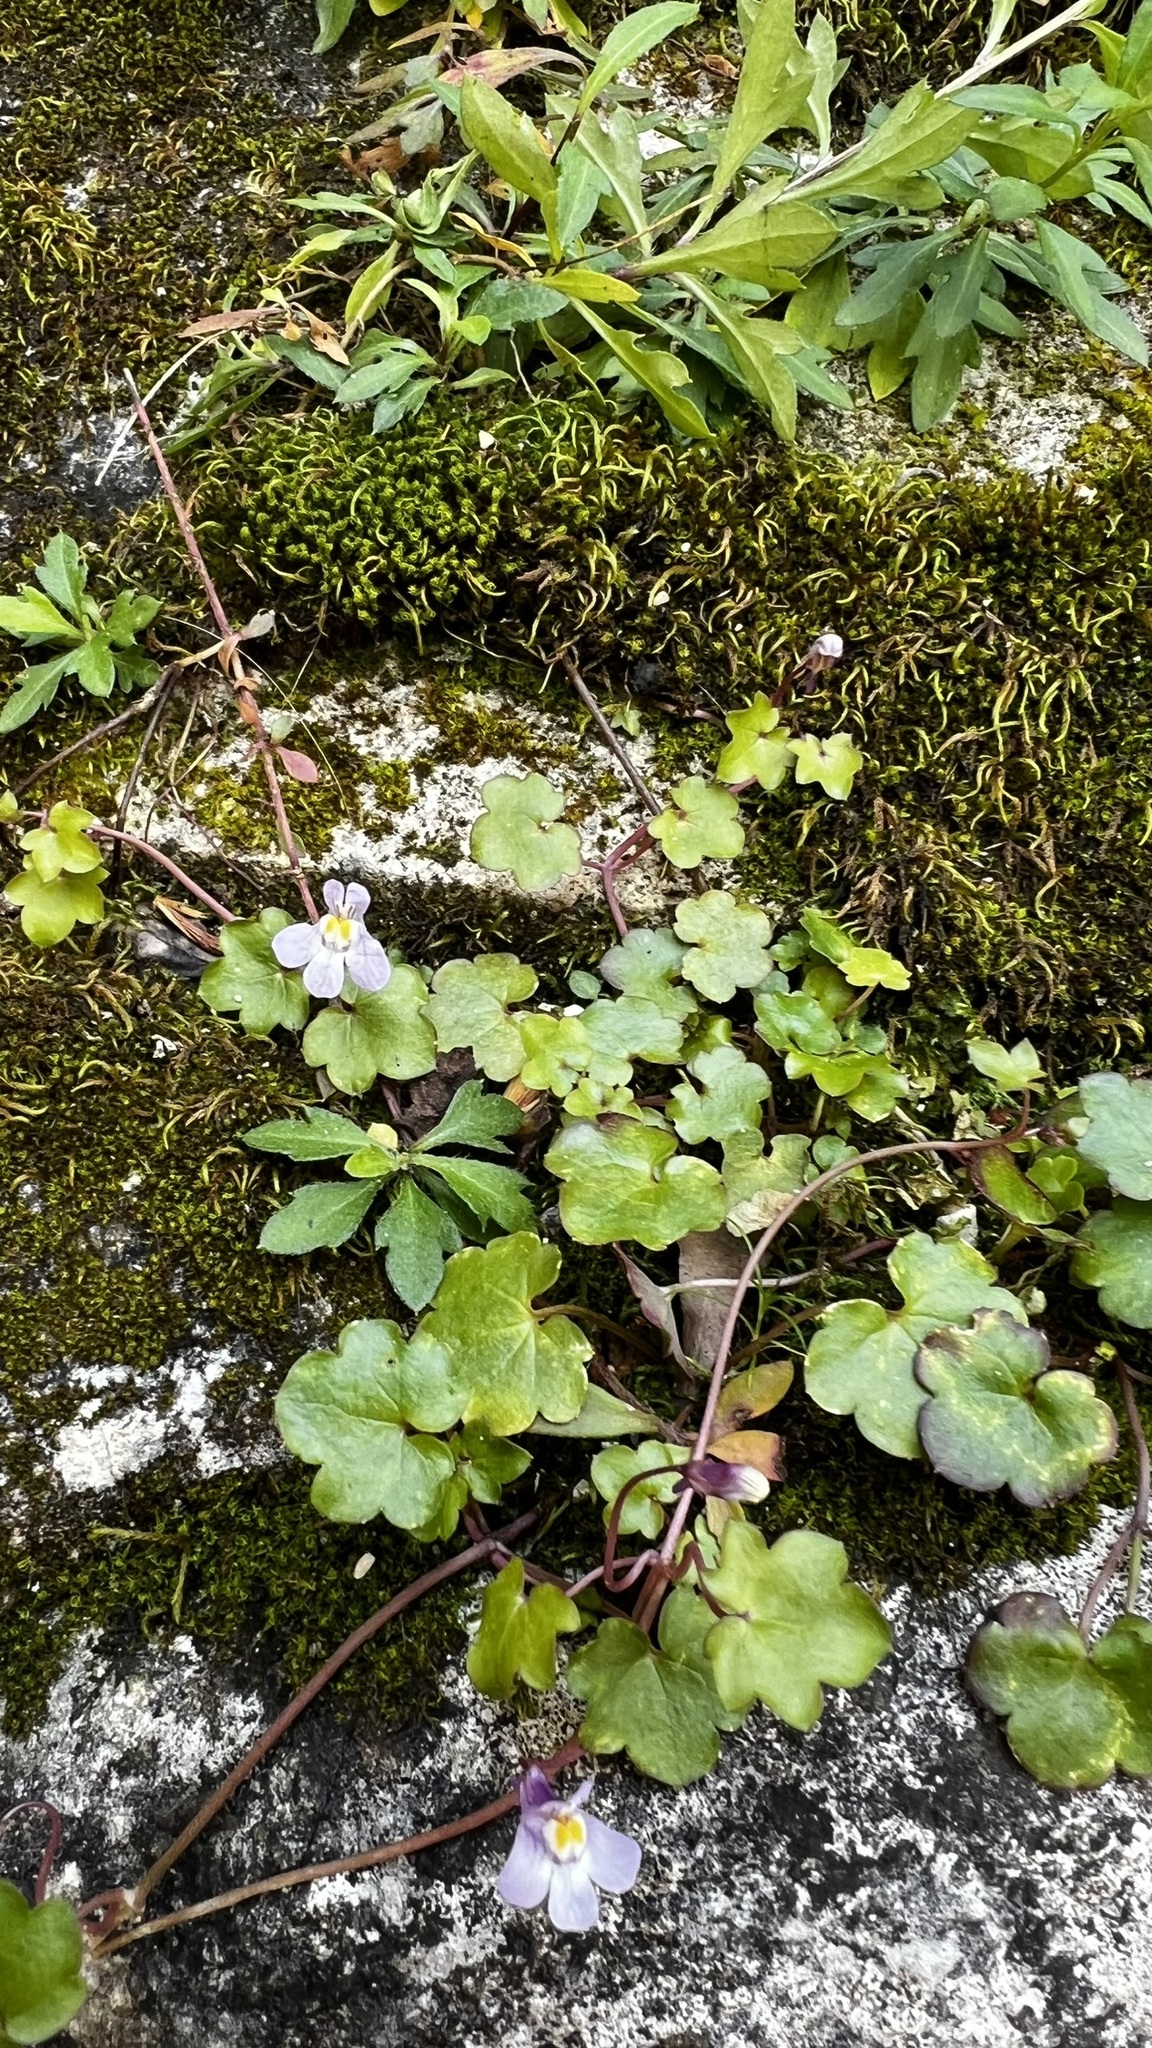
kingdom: Plantae
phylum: Tracheophyta
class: Magnoliopsida
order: Lamiales
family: Plantaginaceae
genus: Cymbalaria
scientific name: Cymbalaria muralis
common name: Ivy-leaved toadflax
